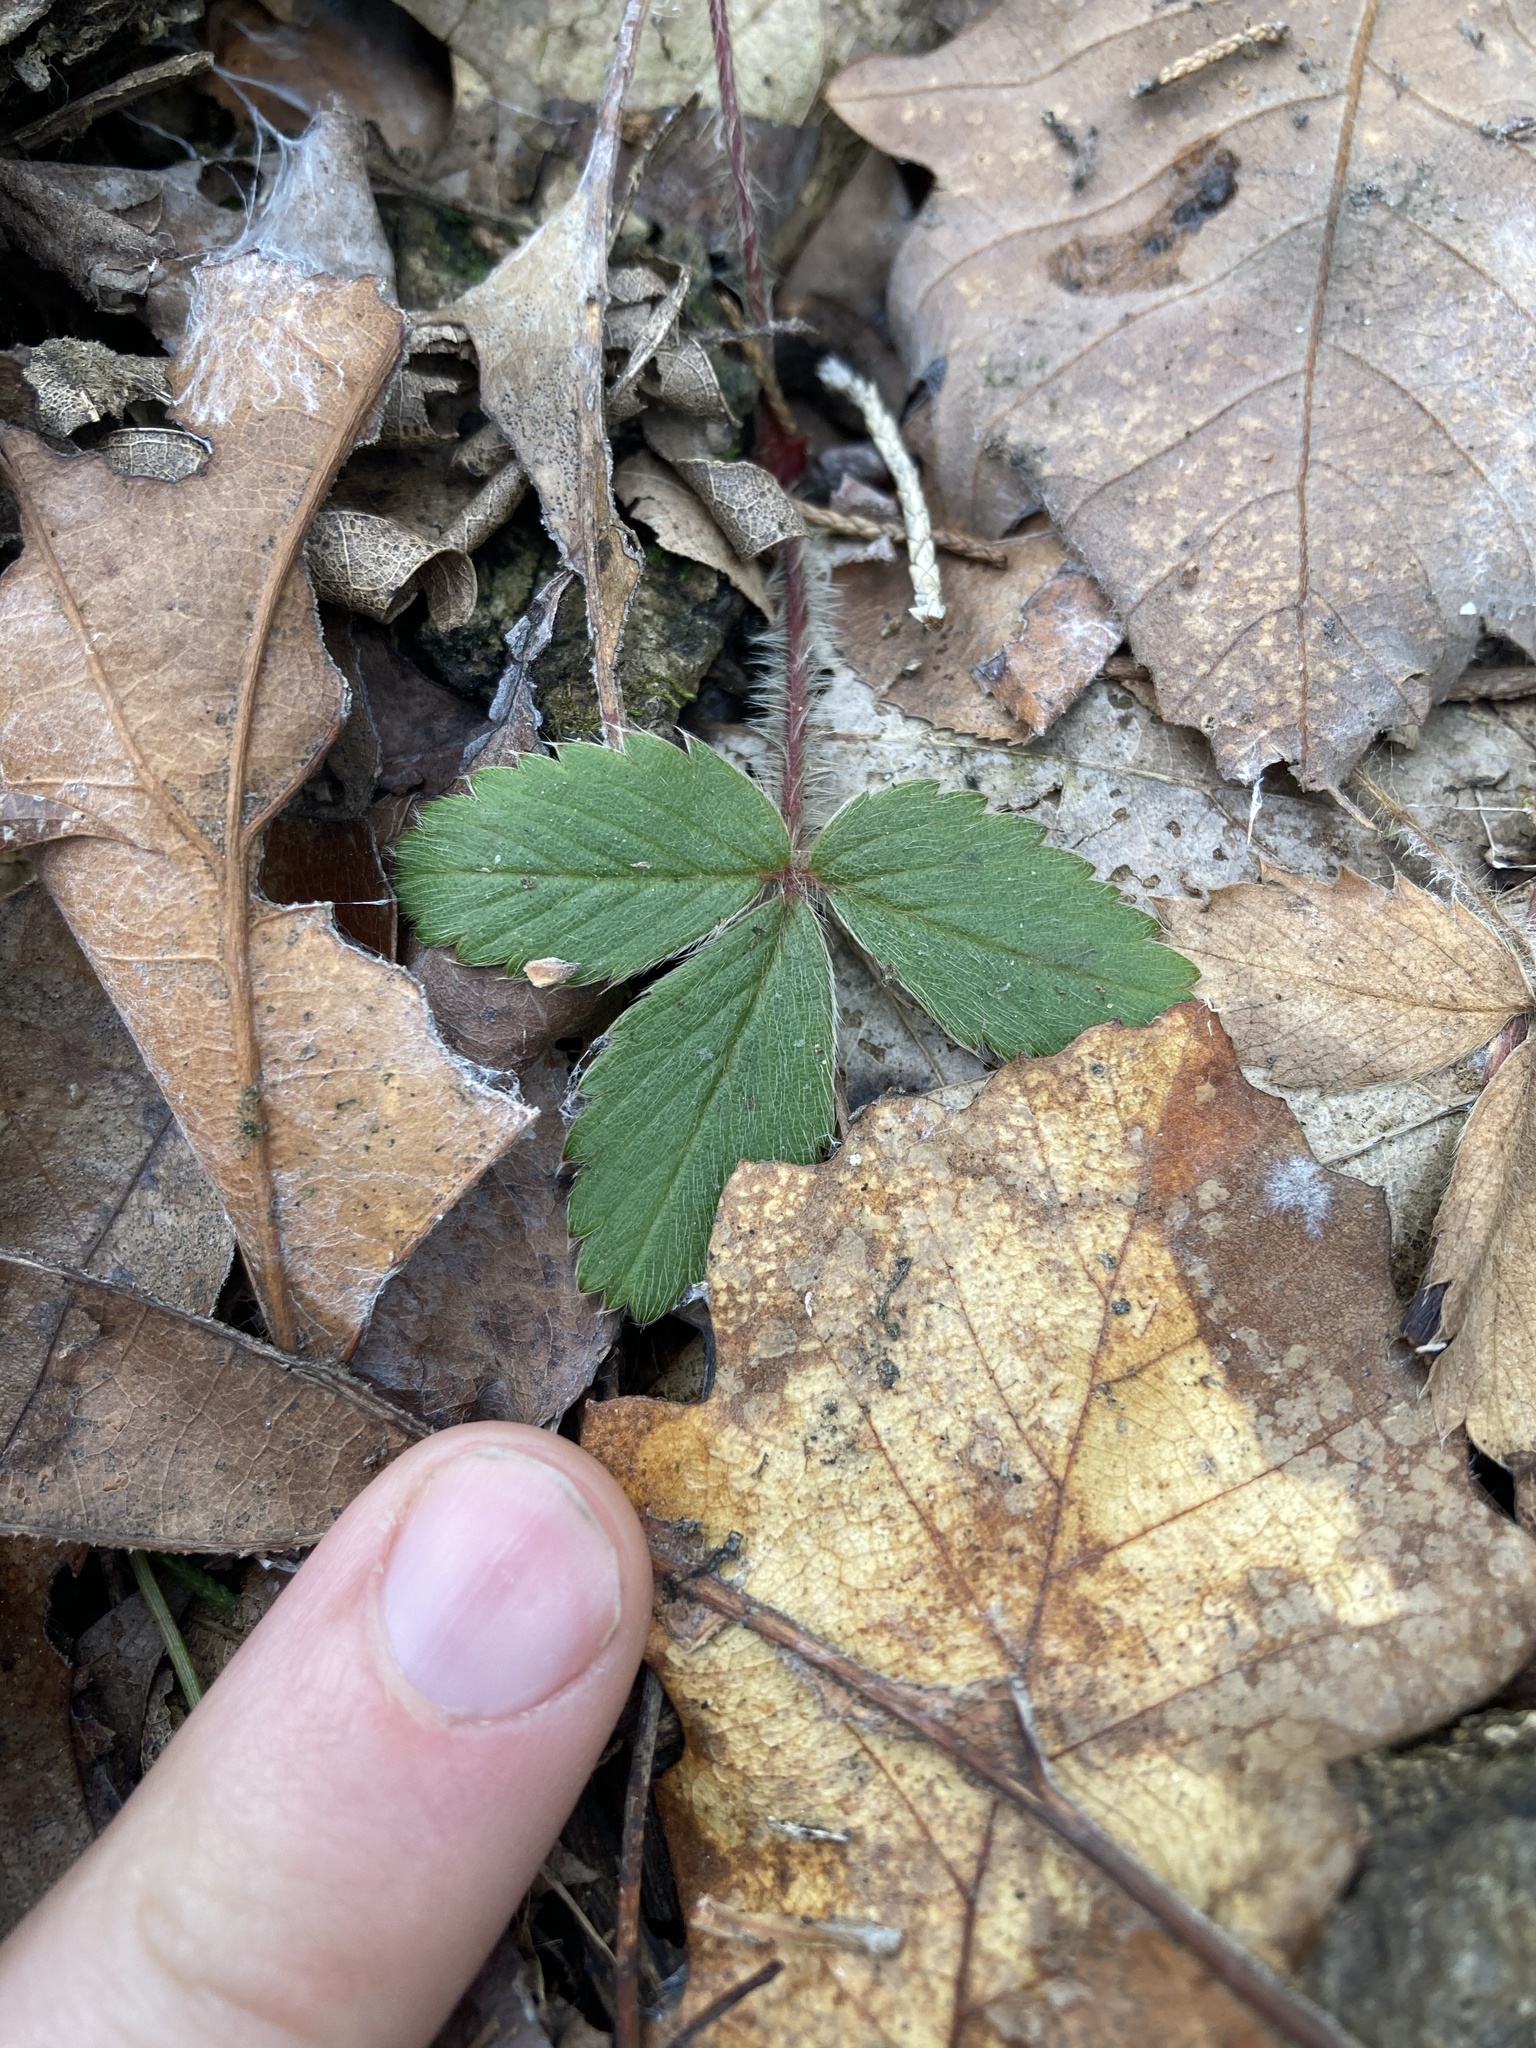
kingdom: Plantae
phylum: Tracheophyta
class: Magnoliopsida
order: Rosales
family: Rosaceae
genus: Fragaria
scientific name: Fragaria virginiana
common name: Thickleaved wild strawberry
